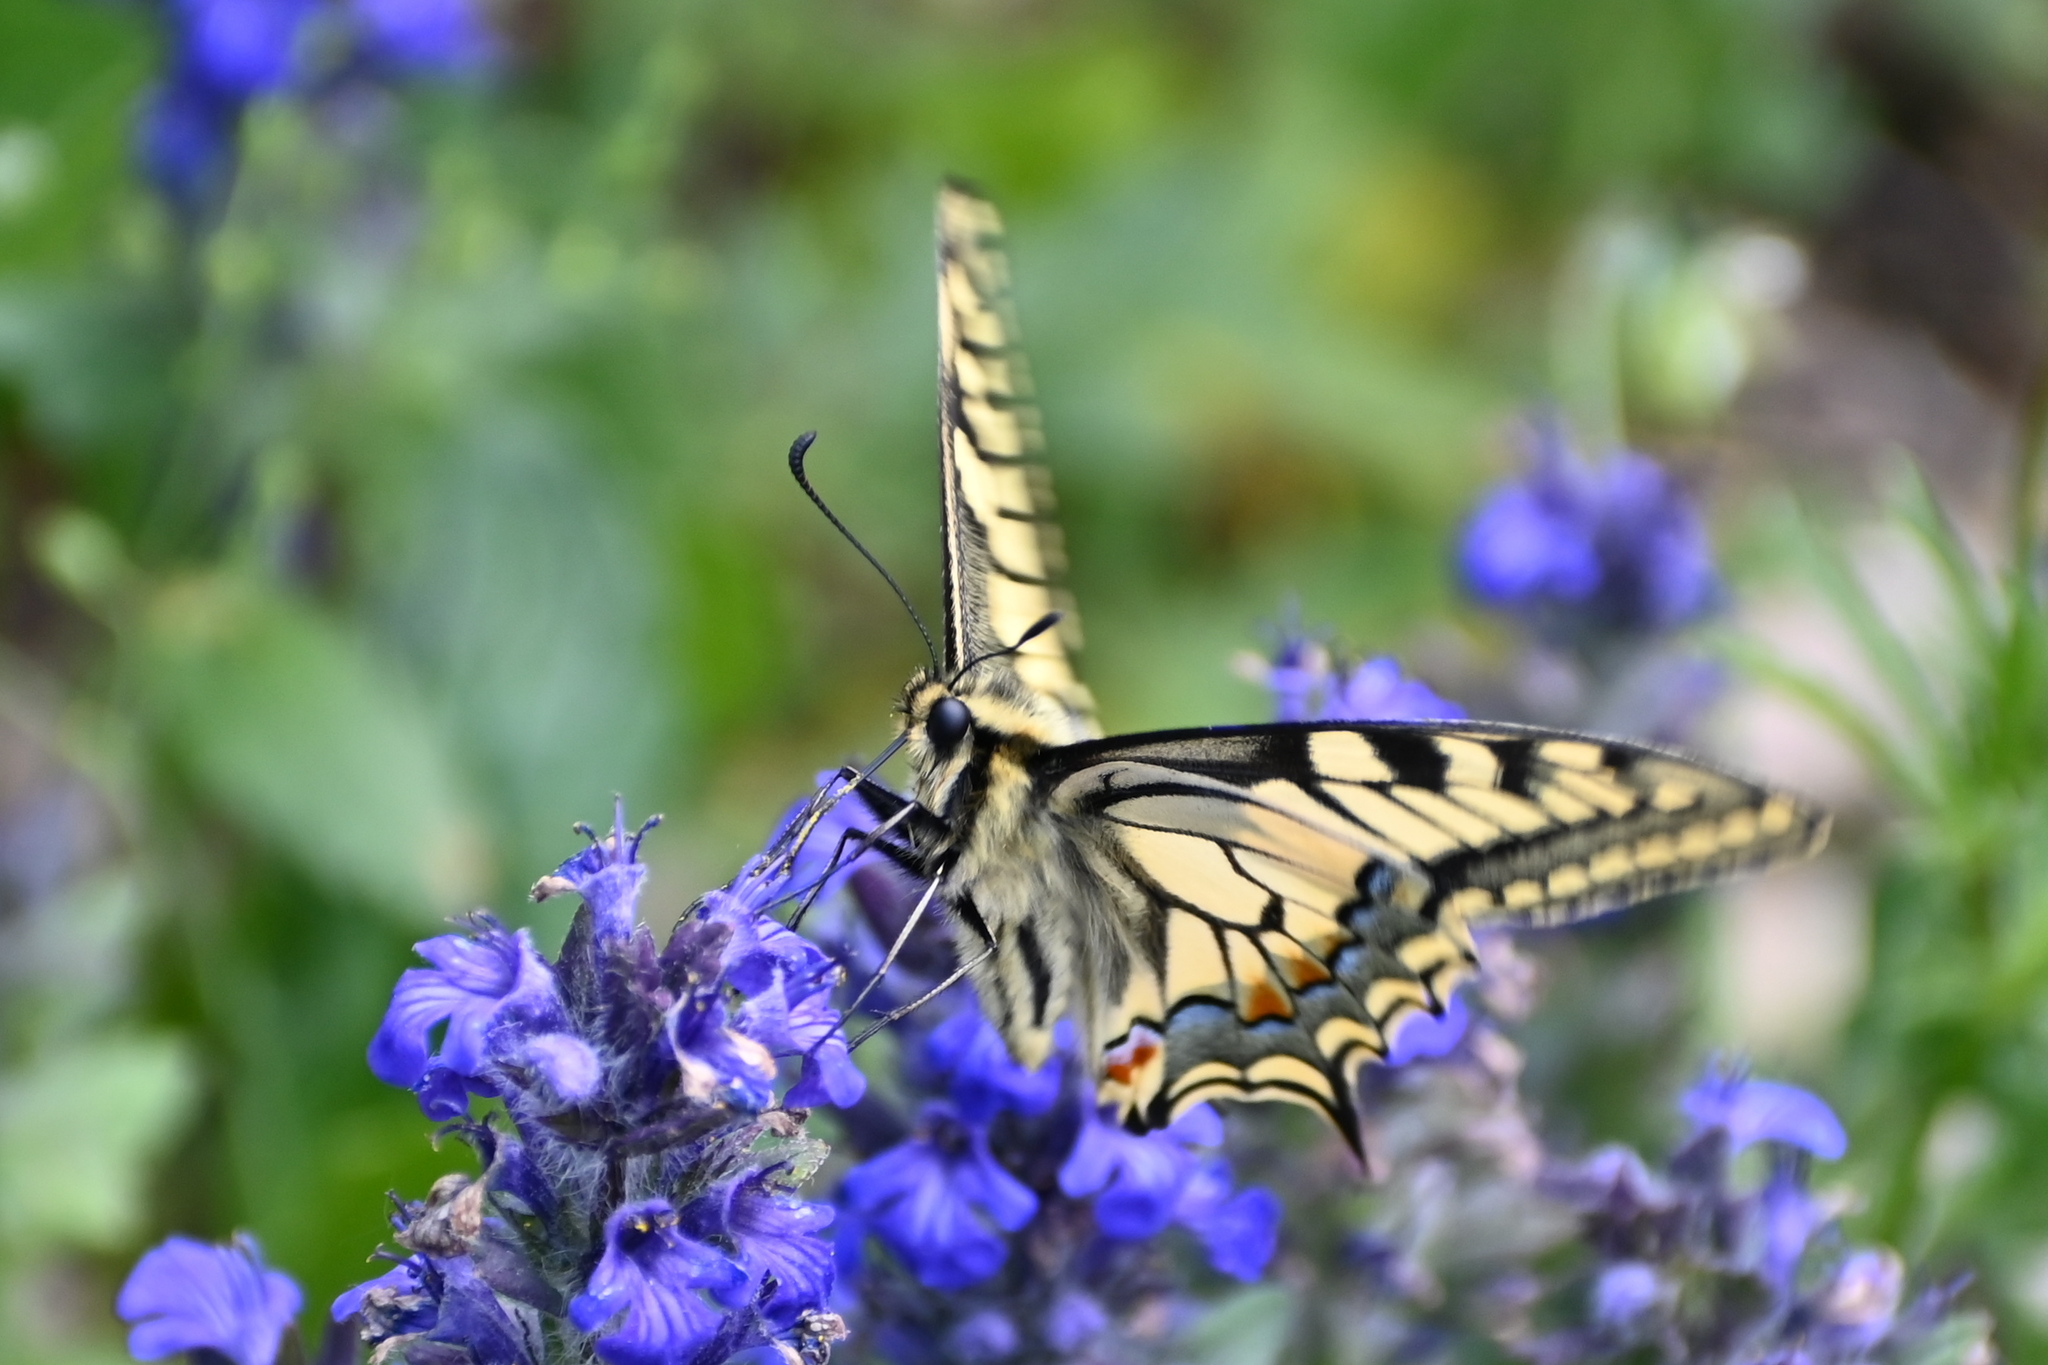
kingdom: Animalia
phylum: Arthropoda
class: Insecta
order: Lepidoptera
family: Papilionidae
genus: Papilio
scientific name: Papilio machaon
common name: Swallowtail
